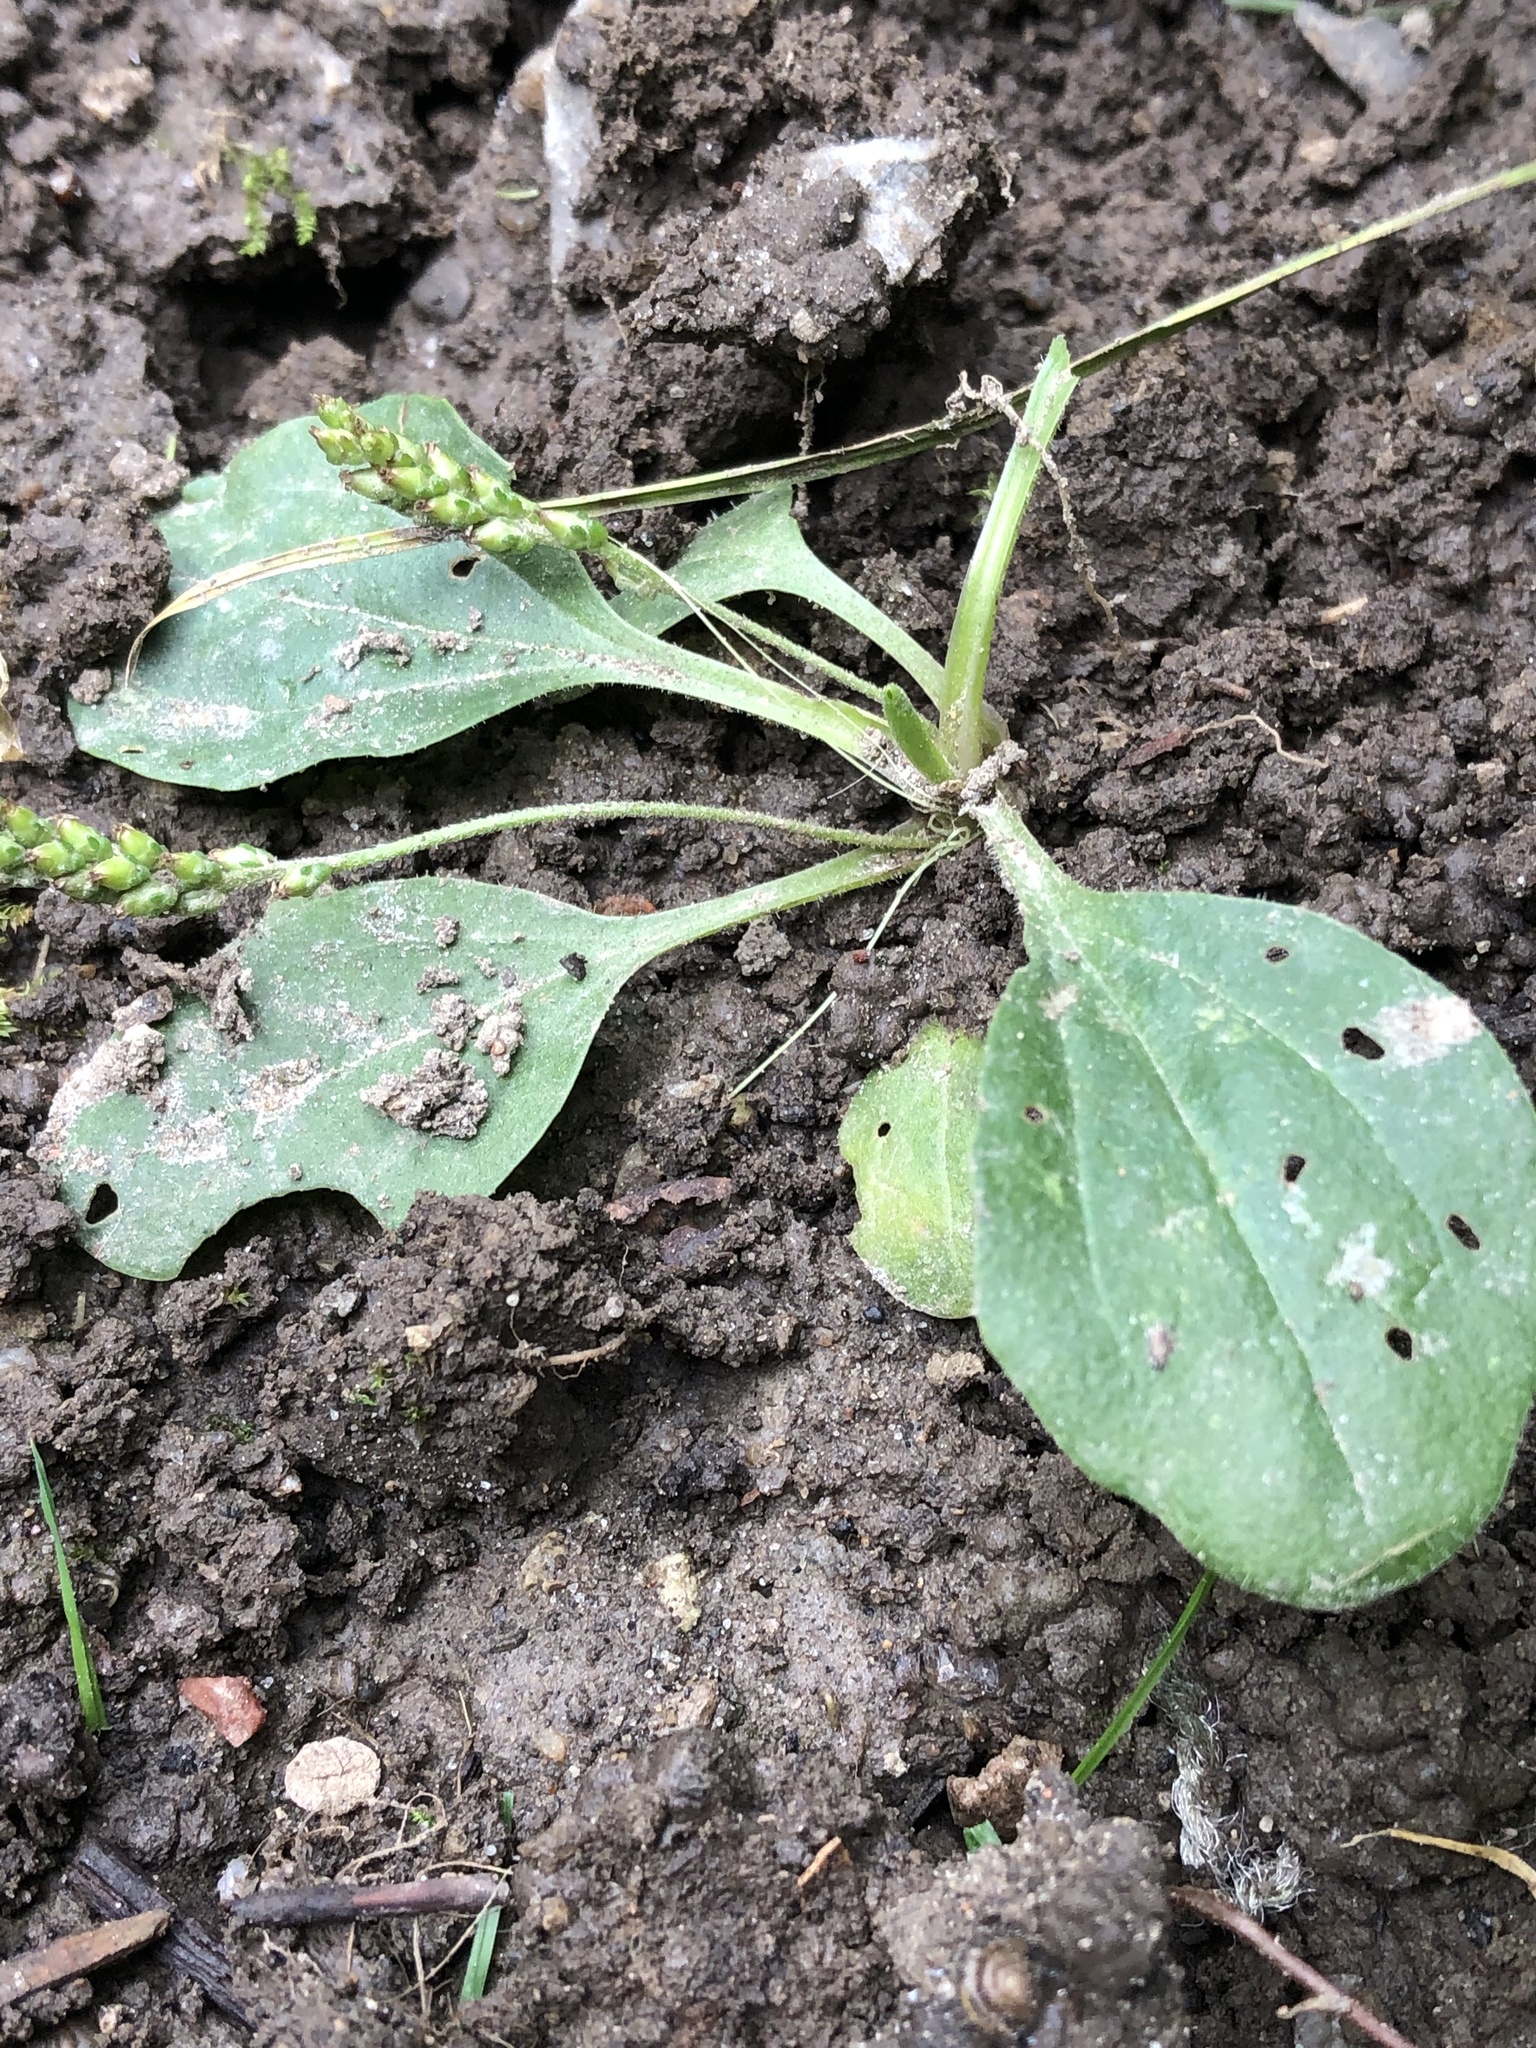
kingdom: Plantae
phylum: Tracheophyta
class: Magnoliopsida
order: Lamiales
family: Plantaginaceae
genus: Plantago
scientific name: Plantago major
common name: Common plantain
